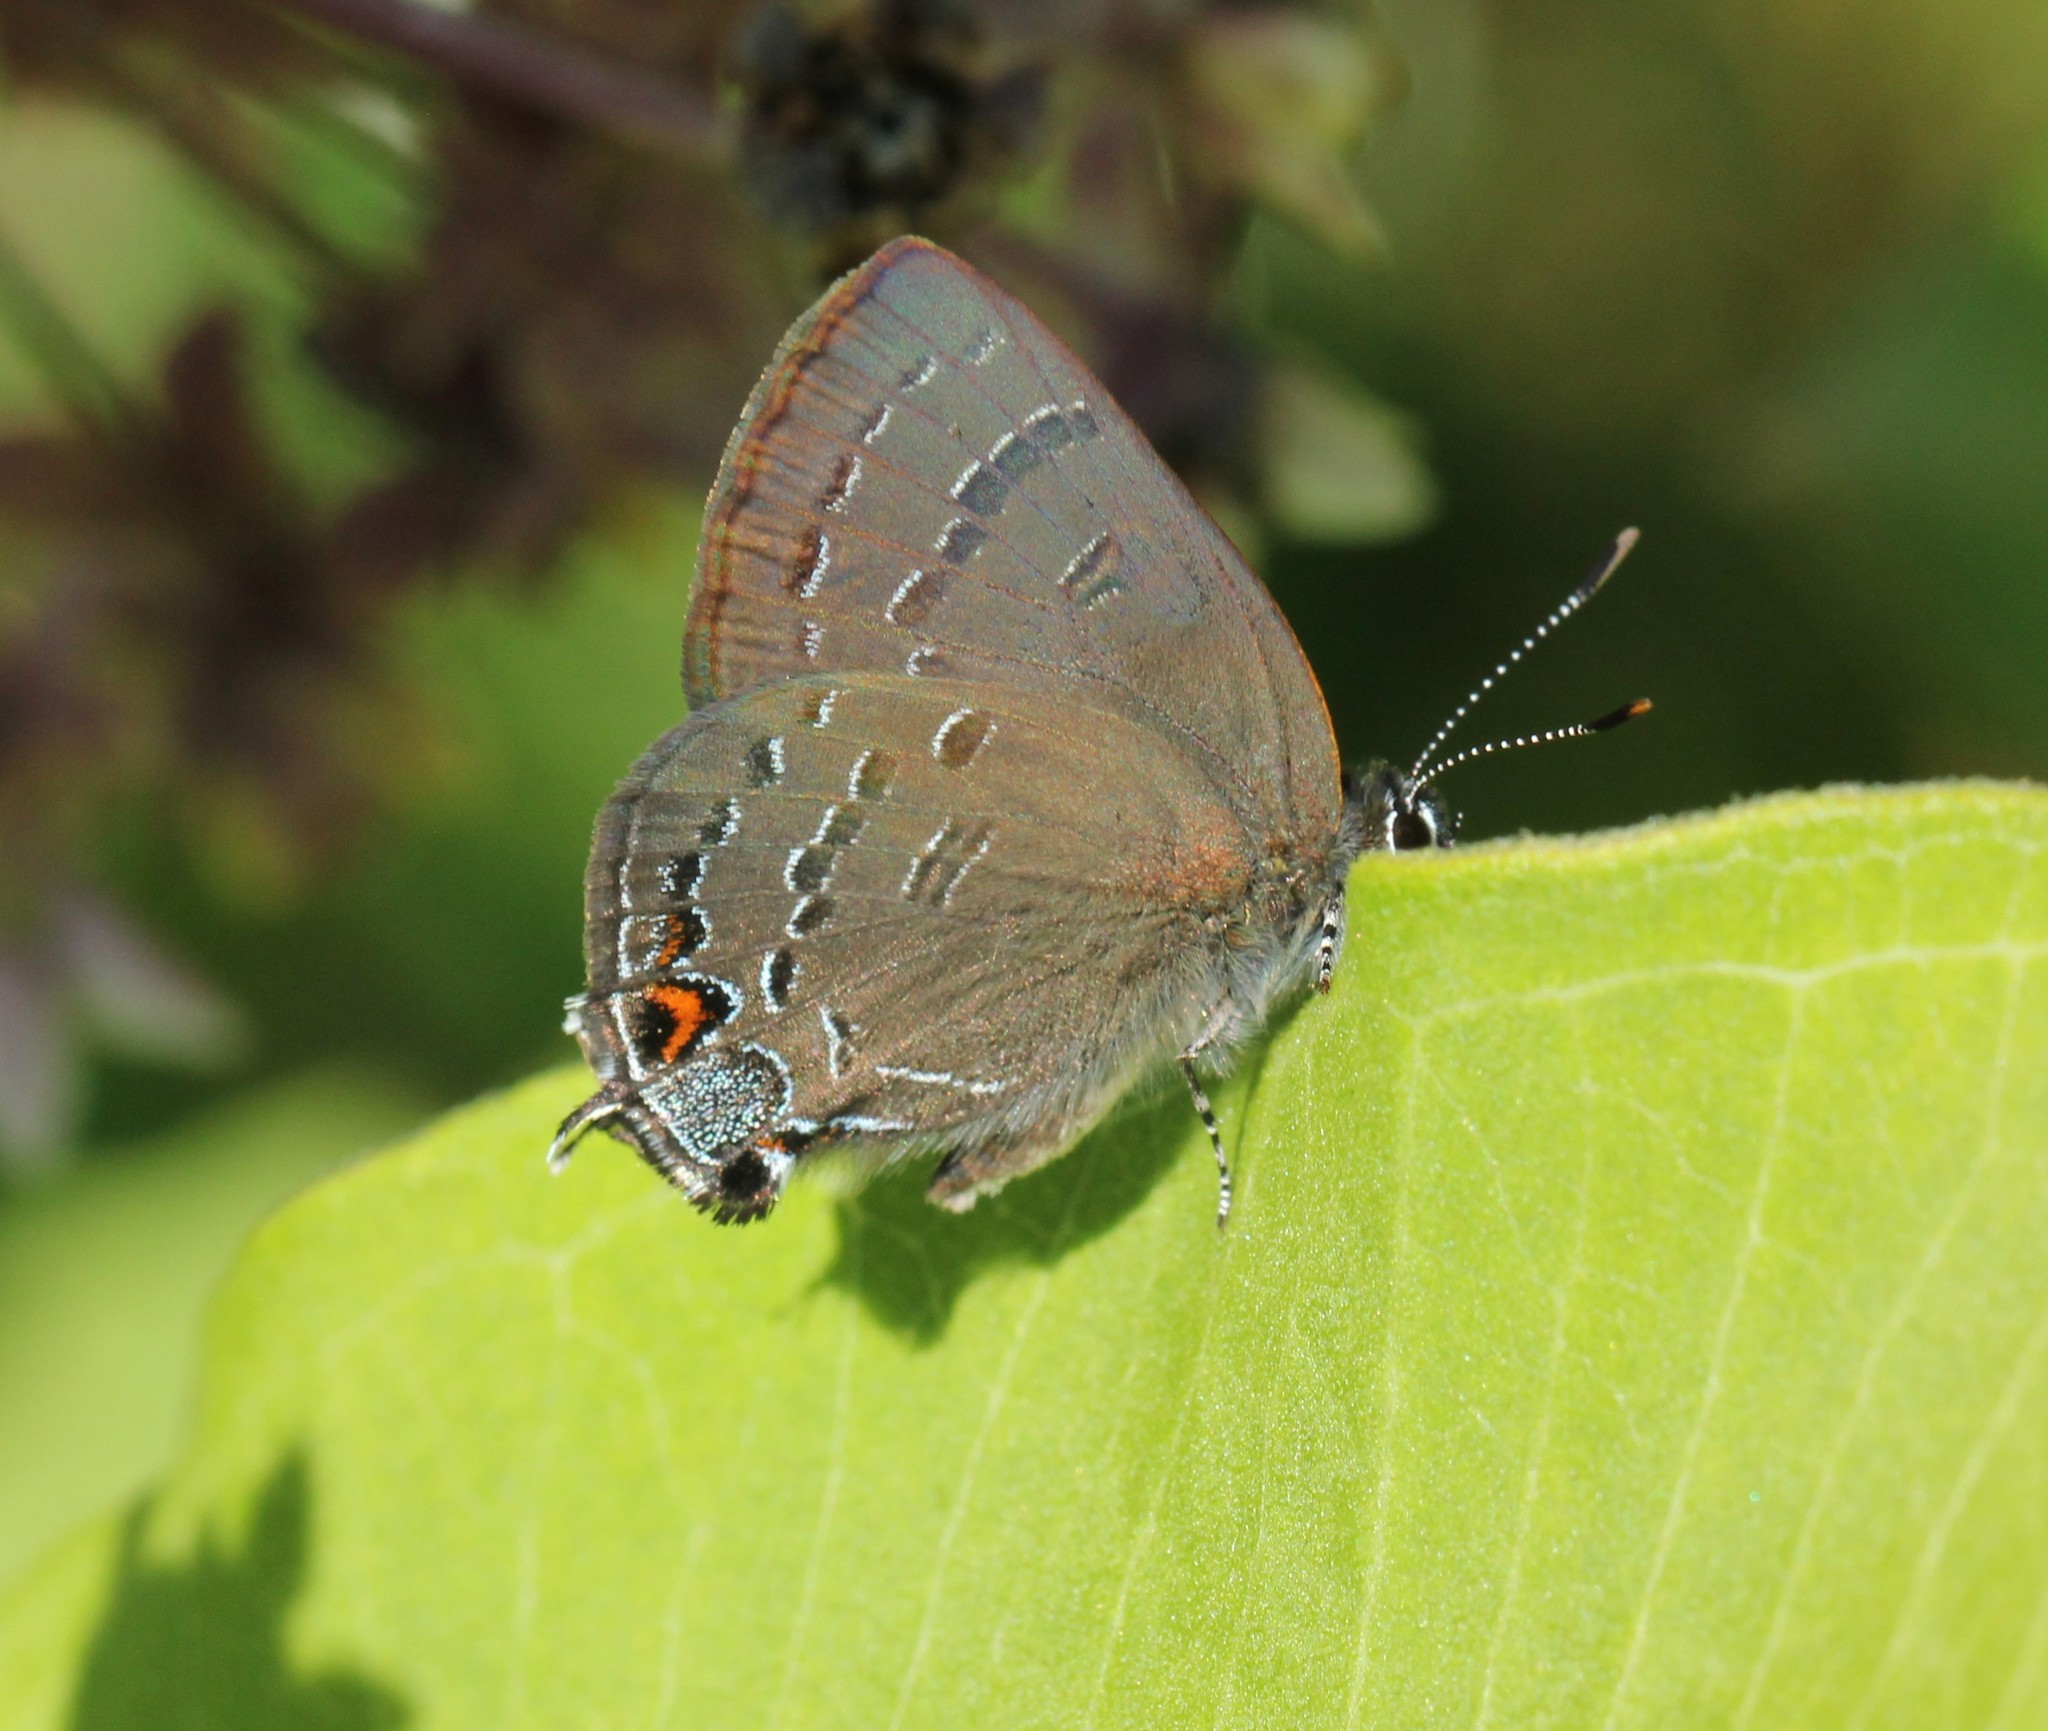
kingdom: Animalia
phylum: Arthropoda
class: Insecta
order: Lepidoptera
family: Lycaenidae
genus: Satyrium
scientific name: Satyrium calanus
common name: Banded hairstreak
